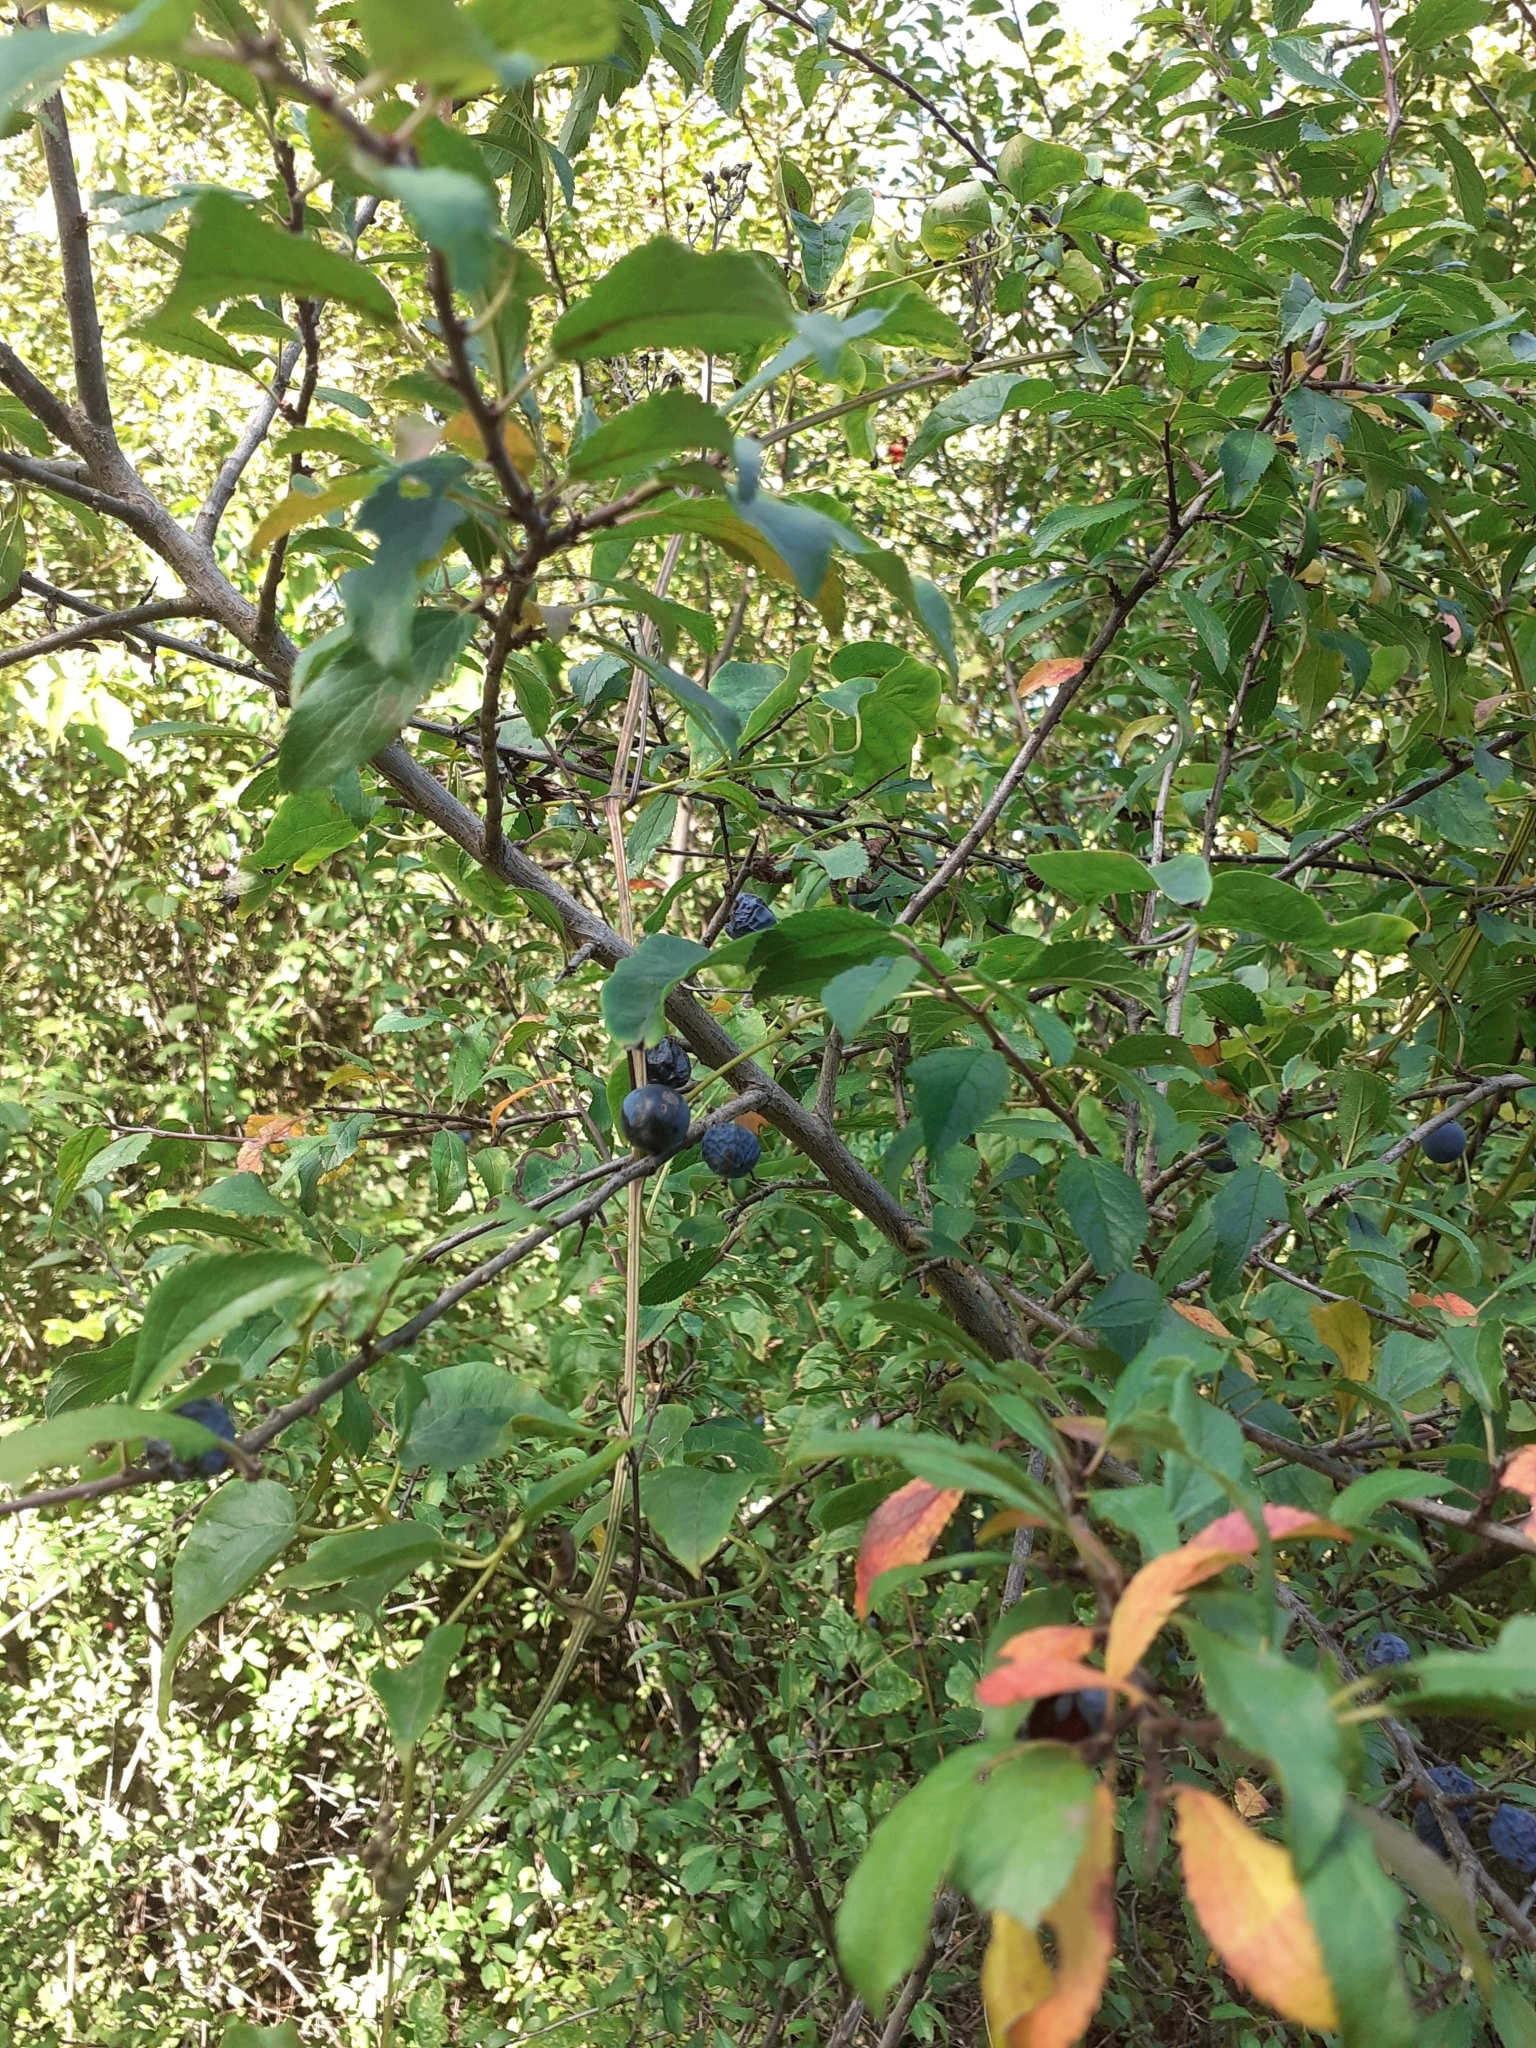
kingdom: Plantae
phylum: Tracheophyta
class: Magnoliopsida
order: Rosales
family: Rosaceae
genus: Prunus
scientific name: Prunus spinosa
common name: Blackthorn
